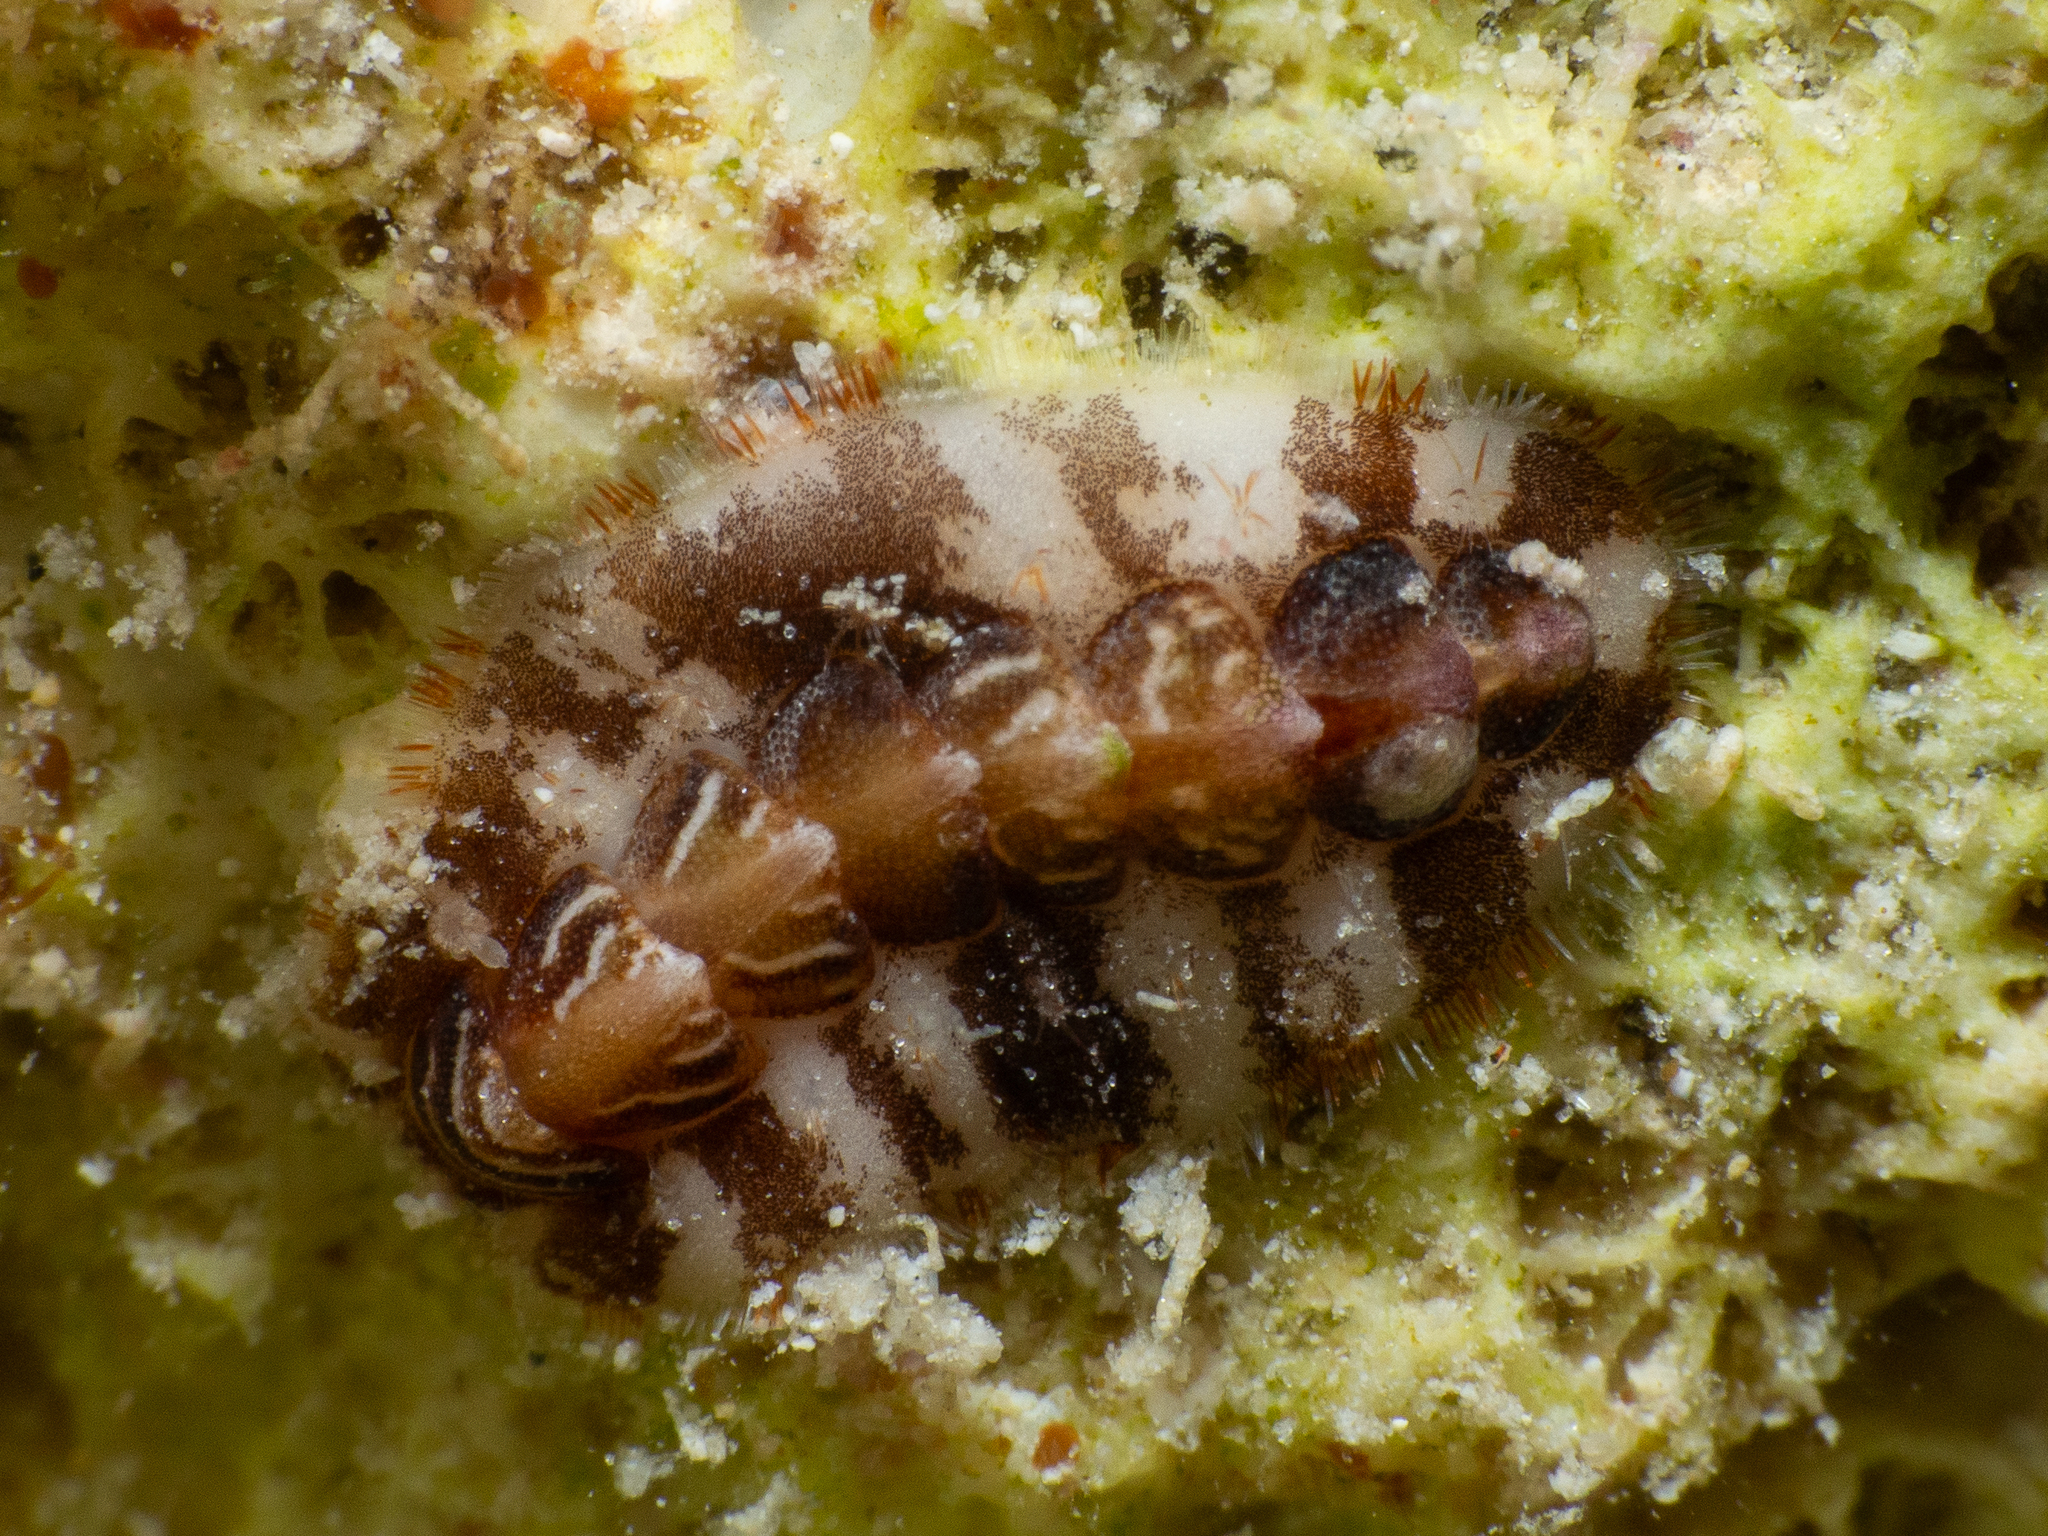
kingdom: Animalia
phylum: Mollusca
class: Polyplacophora
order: Chitonida
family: Acanthochitonidae
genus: Americhiton
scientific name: Americhiton zebra
